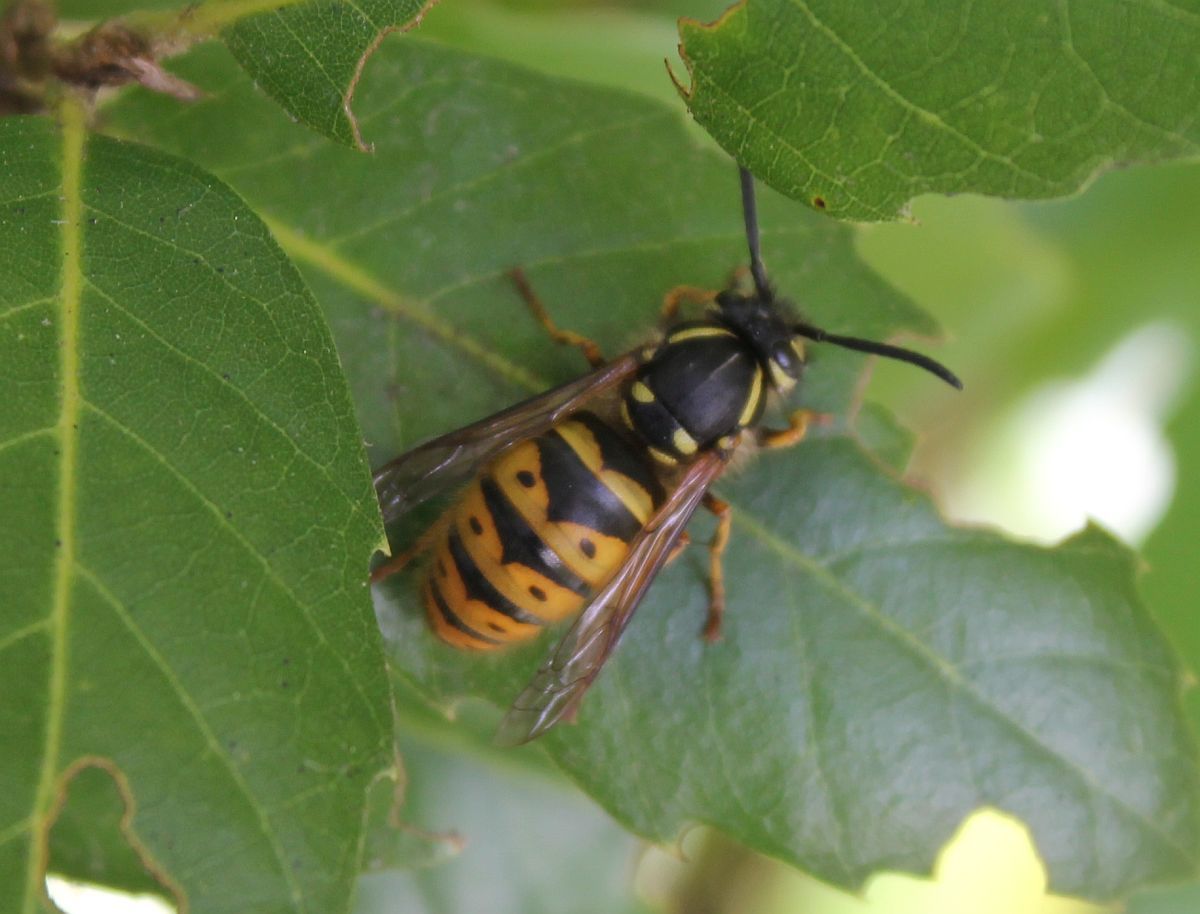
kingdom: Animalia
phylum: Arthropoda
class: Insecta
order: Hymenoptera
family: Vespidae
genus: Vespula
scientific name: Vespula vulgaris
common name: Common wasp
